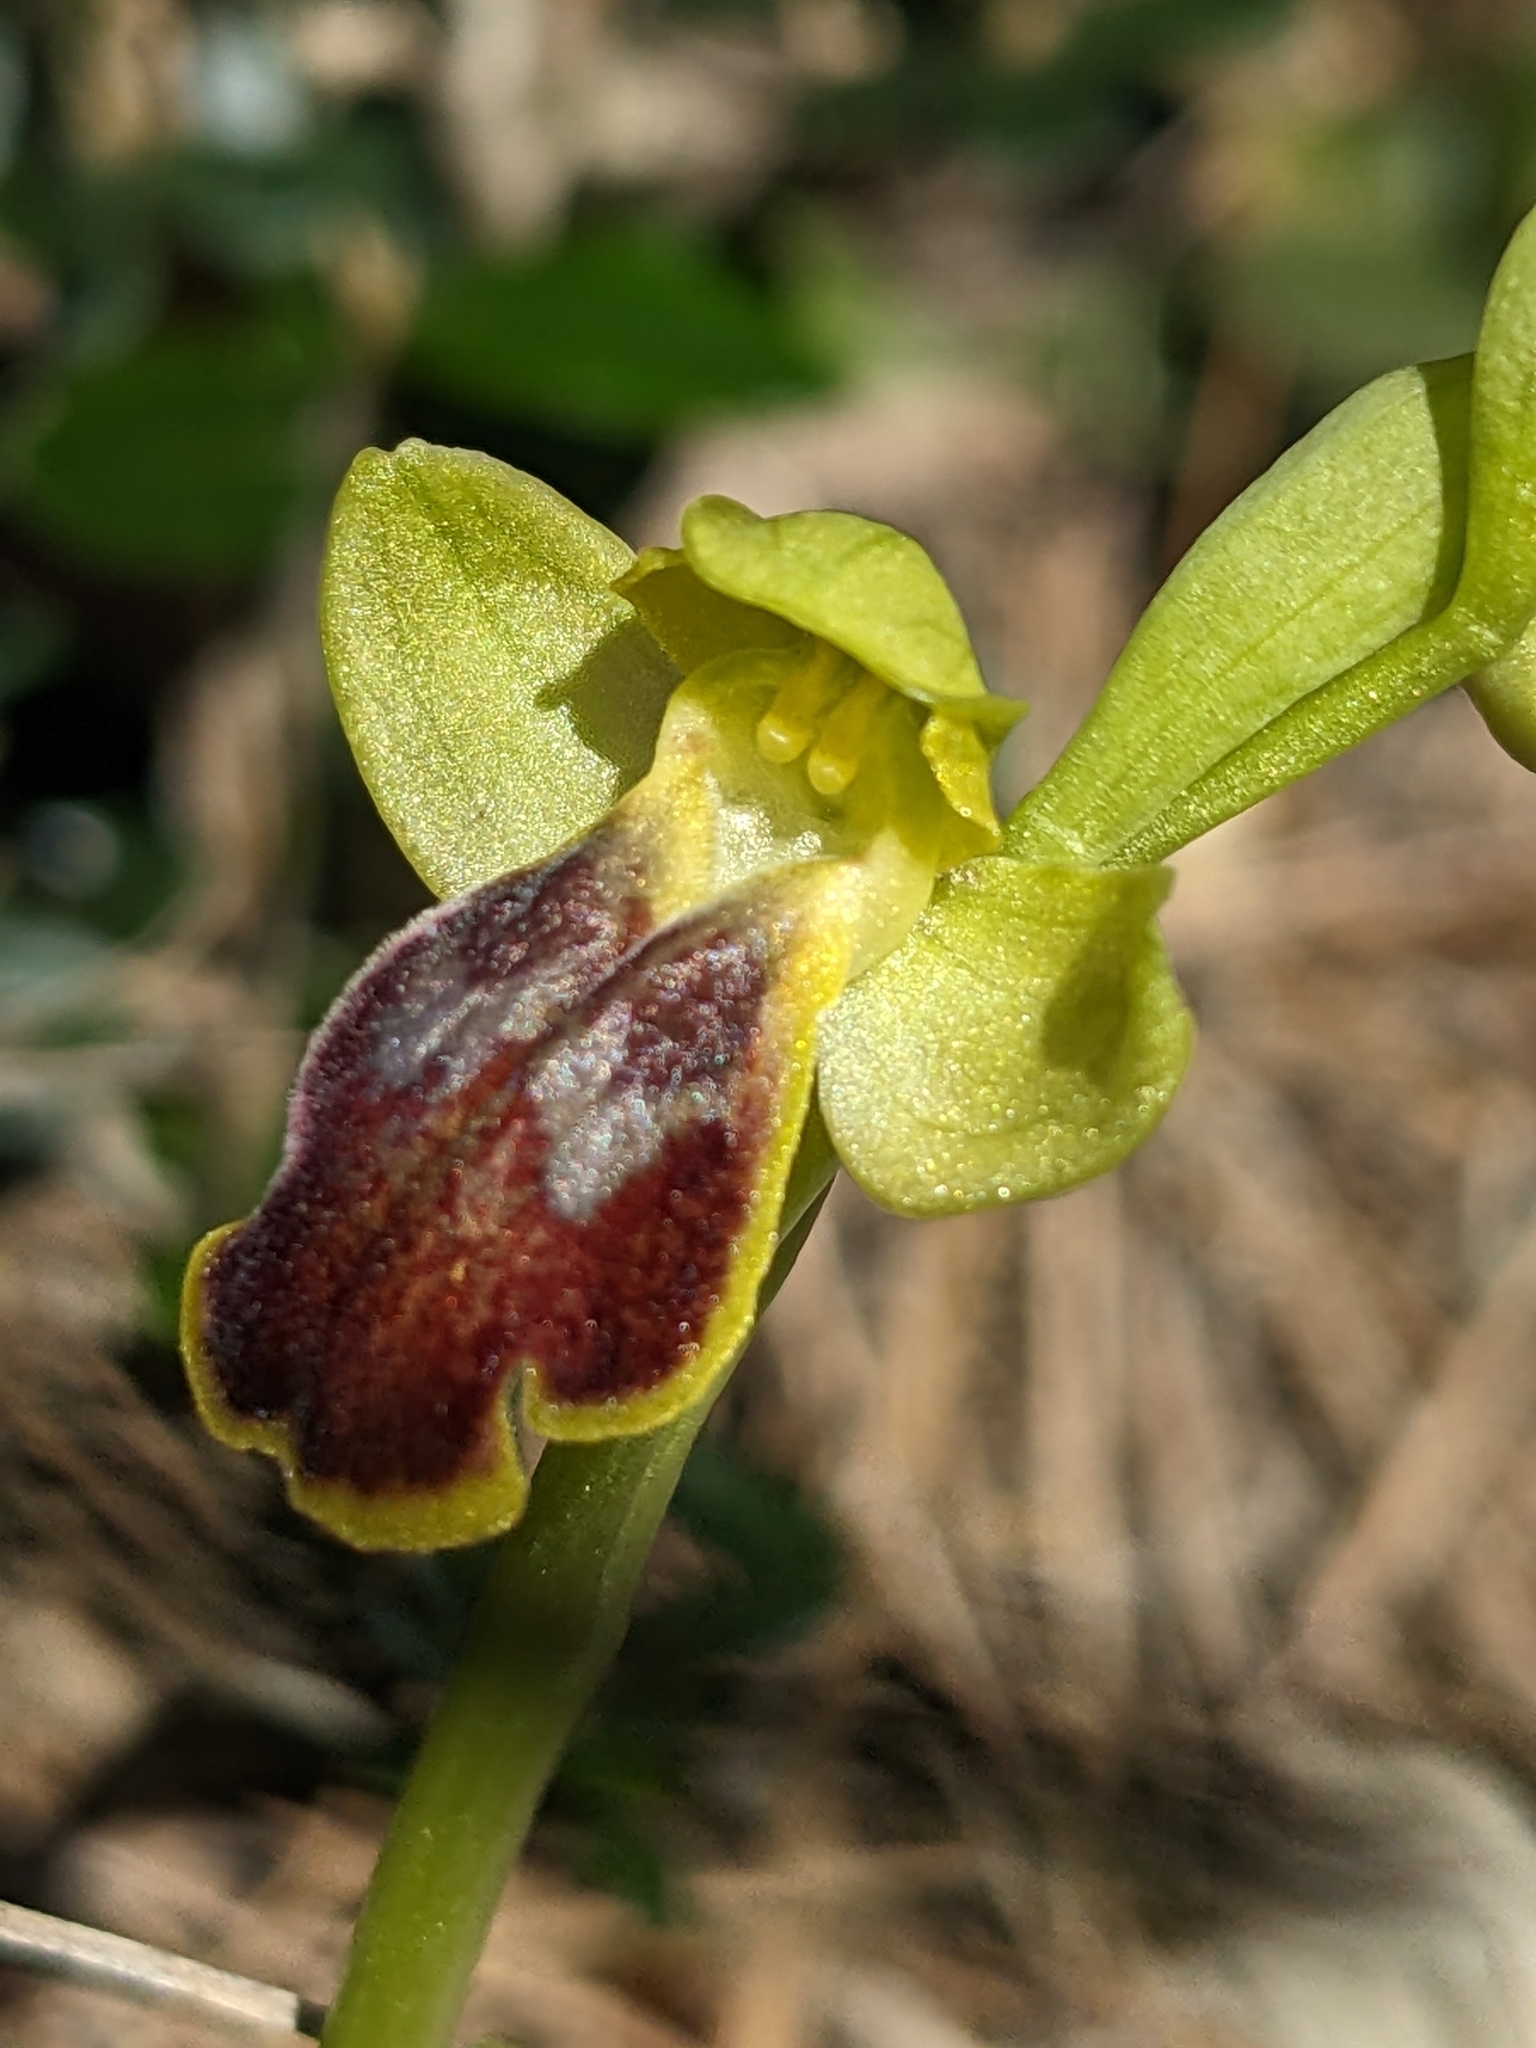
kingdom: Plantae
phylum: Tracheophyta
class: Liliopsida
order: Asparagales
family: Orchidaceae
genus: Ophrys
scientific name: Ophrys fusca
